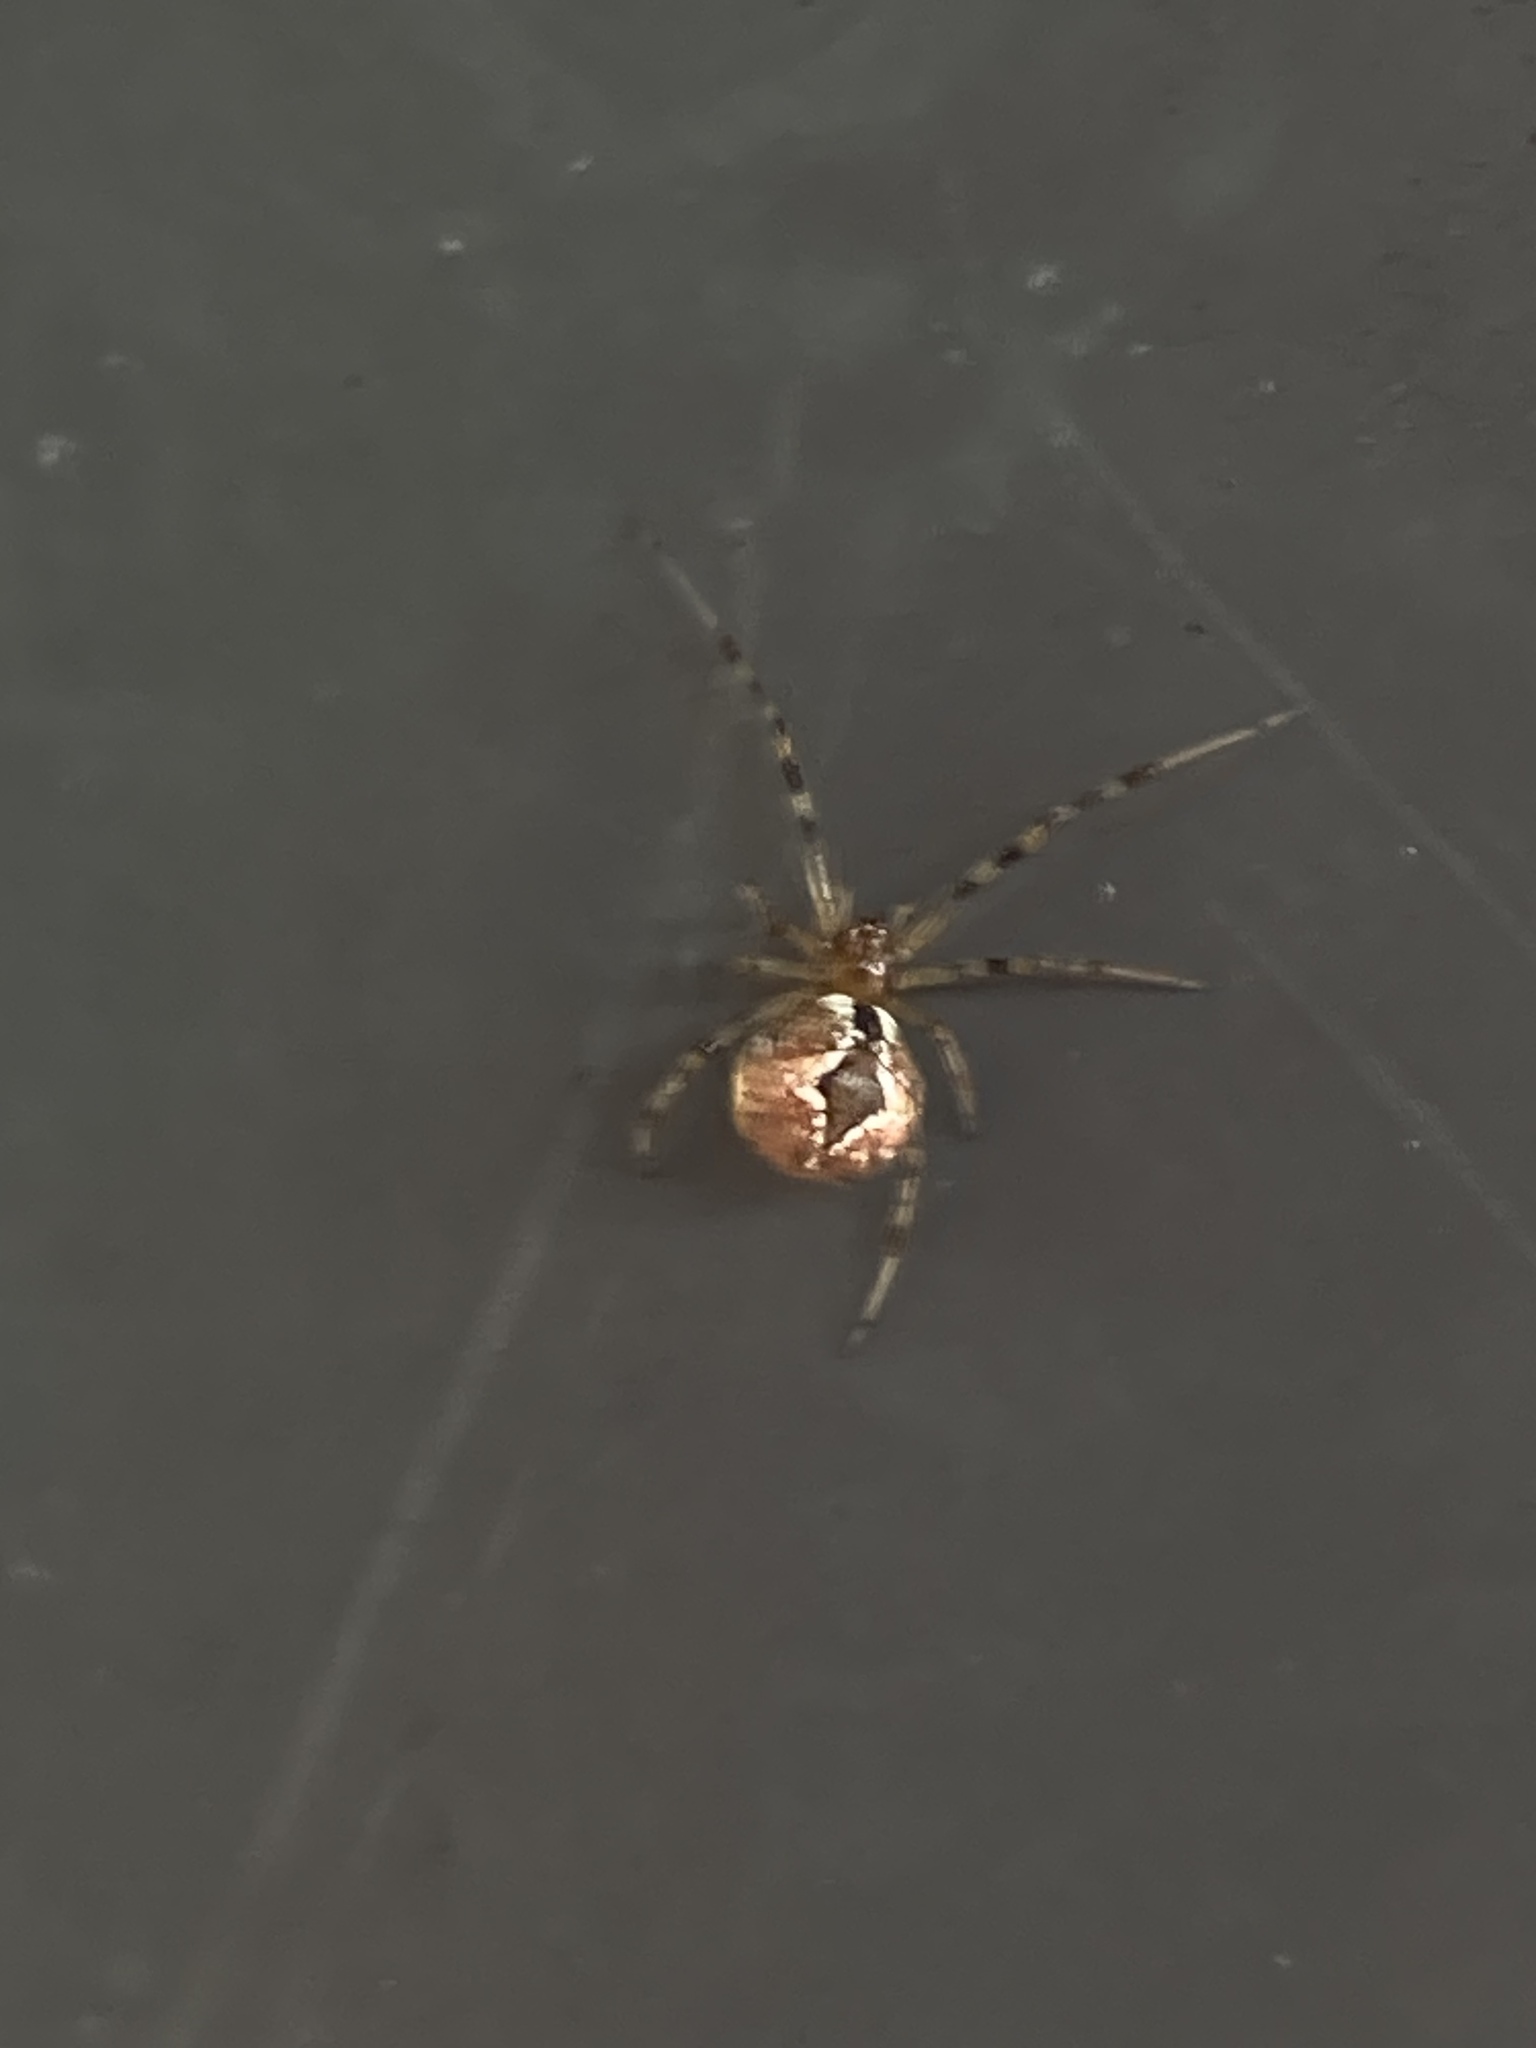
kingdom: Animalia
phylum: Arthropoda
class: Arachnida
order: Araneae
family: Theridiidae
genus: Cryptachaea
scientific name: Cryptachaea veruculata
